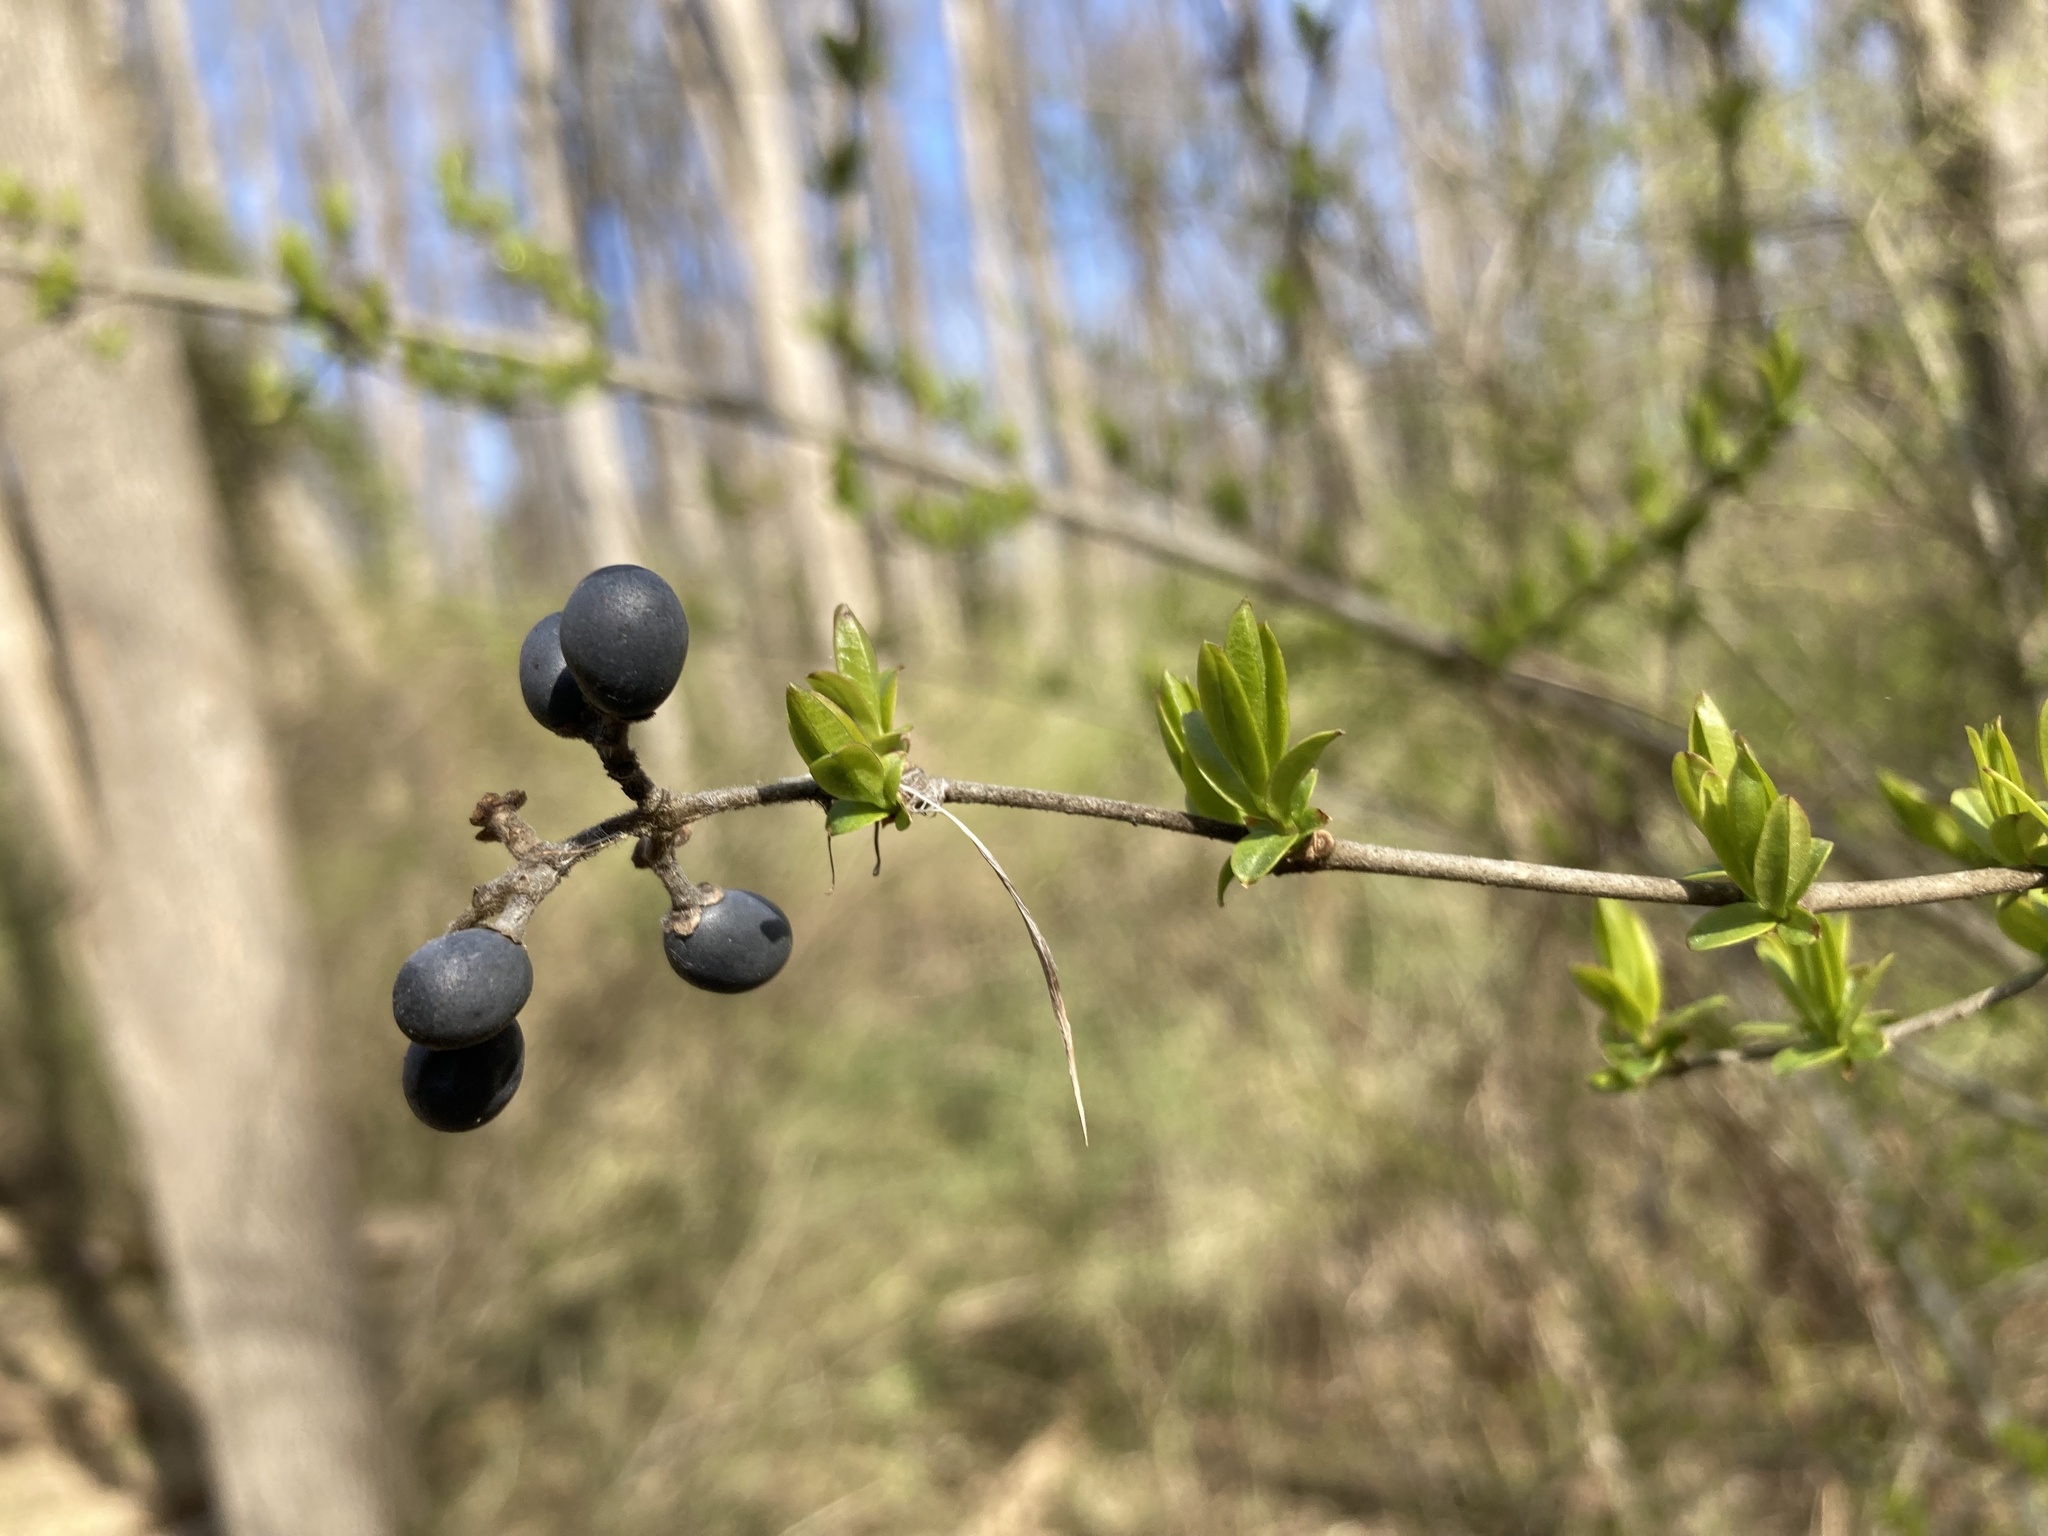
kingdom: Plantae
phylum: Tracheophyta
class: Magnoliopsida
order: Lamiales
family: Oleaceae
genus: Ligustrum
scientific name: Ligustrum obtusifolium
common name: Border privet
